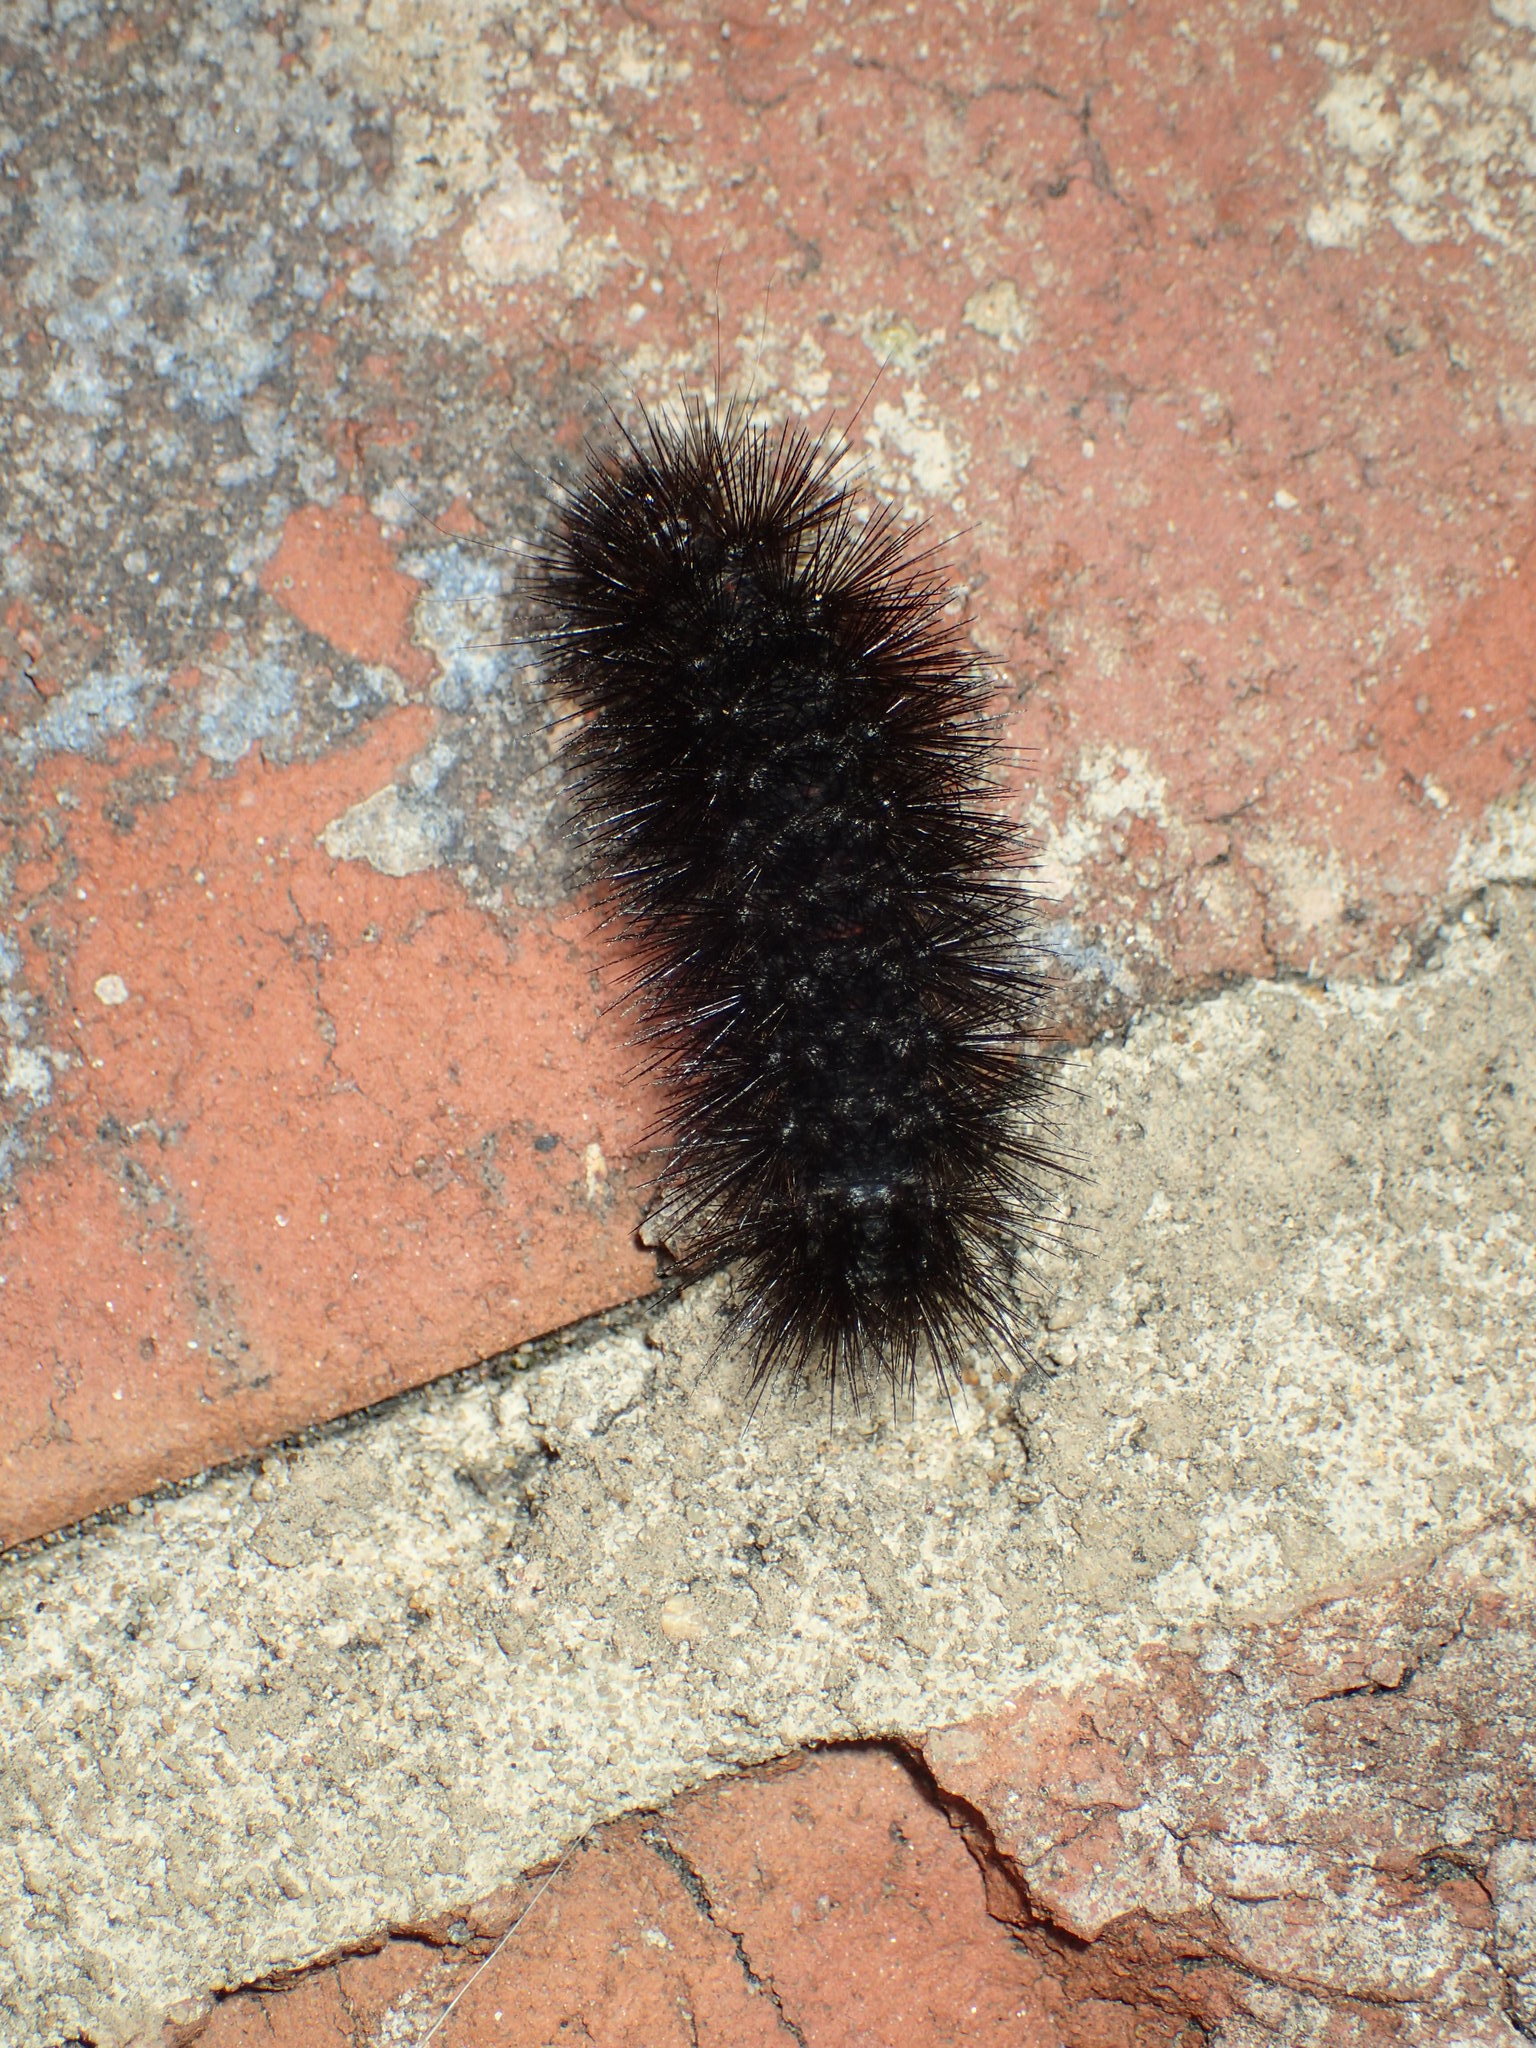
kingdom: Animalia
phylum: Arthropoda
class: Insecta
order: Lepidoptera
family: Erebidae
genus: Hypercompe
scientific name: Hypercompe scribonia
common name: Giant leopard moth
